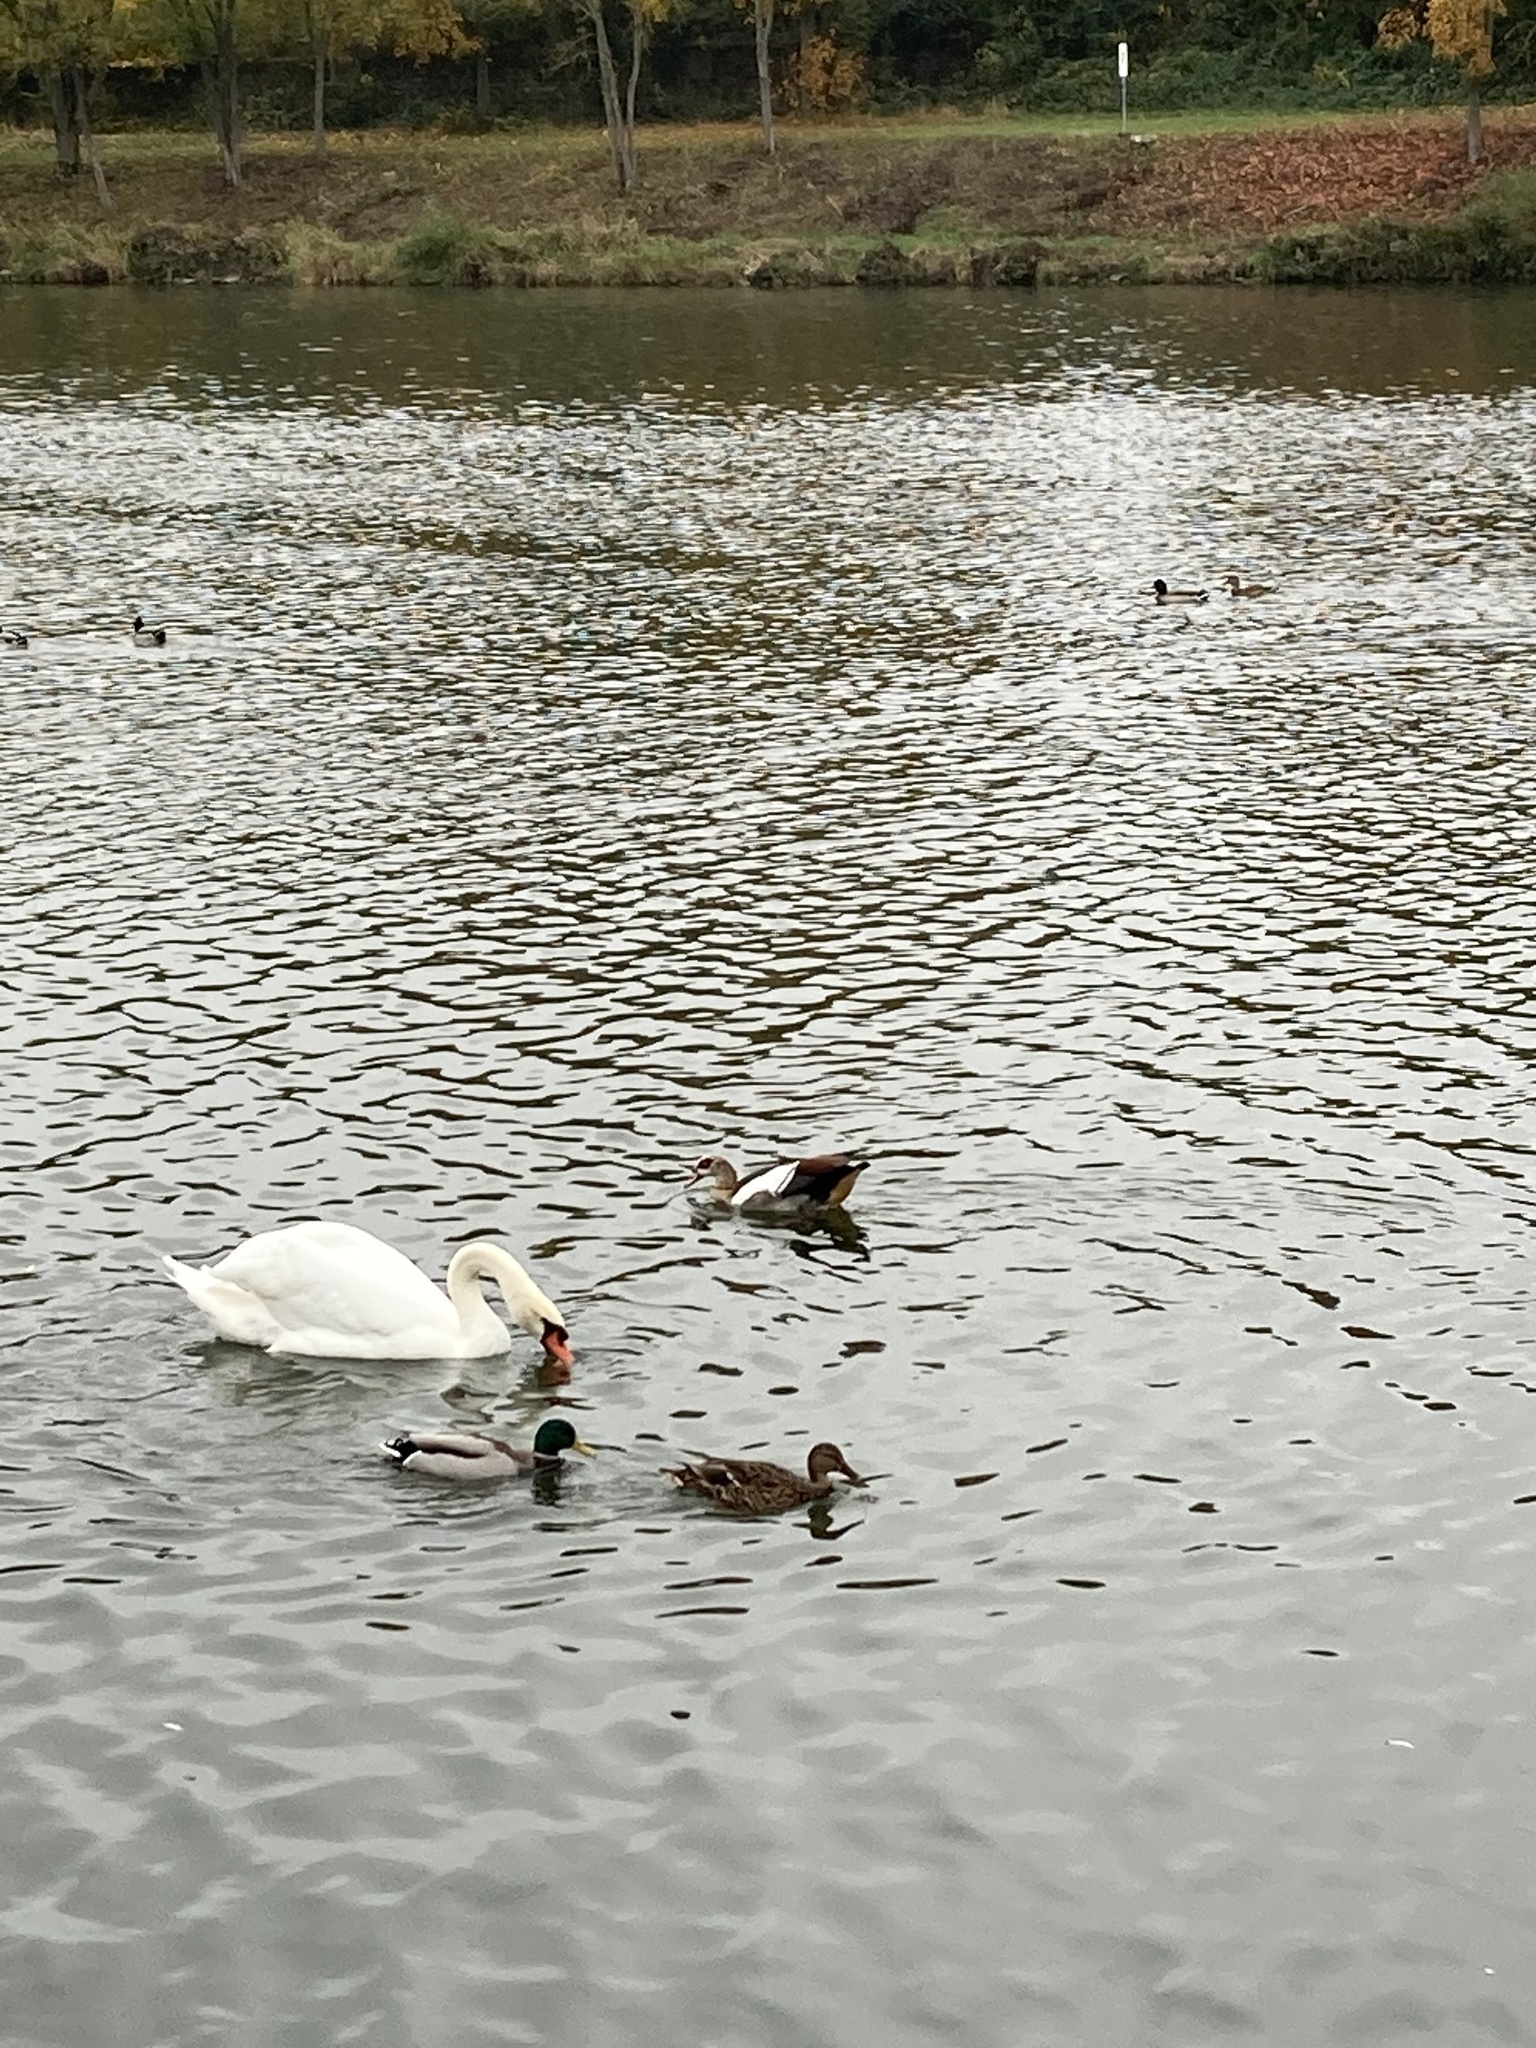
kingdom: Animalia
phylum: Chordata
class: Aves
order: Anseriformes
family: Anatidae
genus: Alopochen
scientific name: Alopochen aegyptiaca
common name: Egyptian goose
